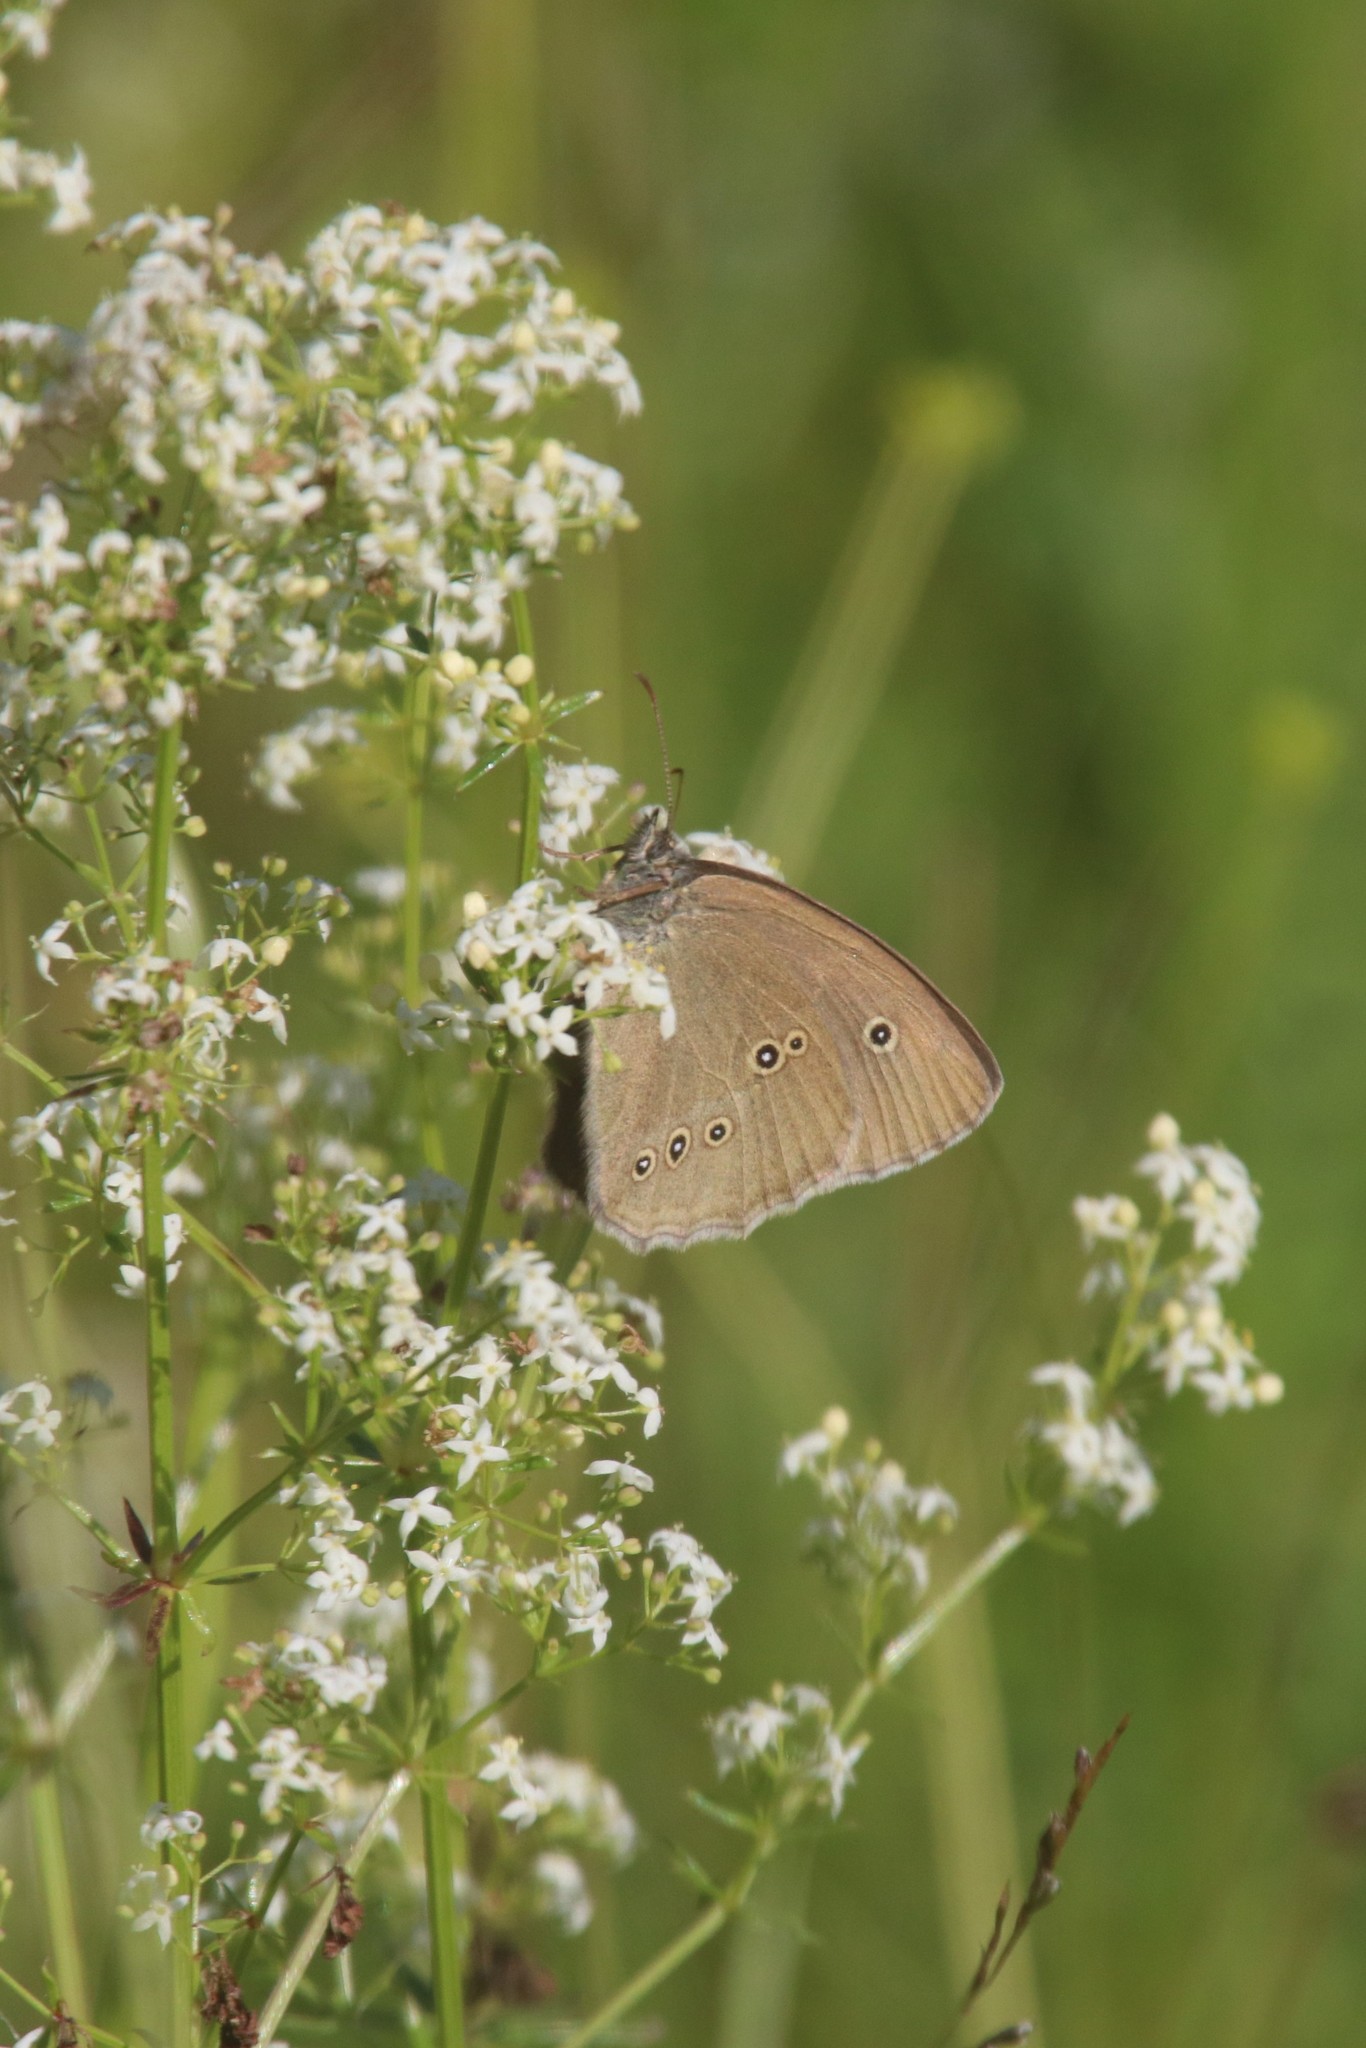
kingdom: Animalia
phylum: Arthropoda
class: Insecta
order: Lepidoptera
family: Nymphalidae
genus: Aphantopus
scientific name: Aphantopus hyperantus
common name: Ringlet
